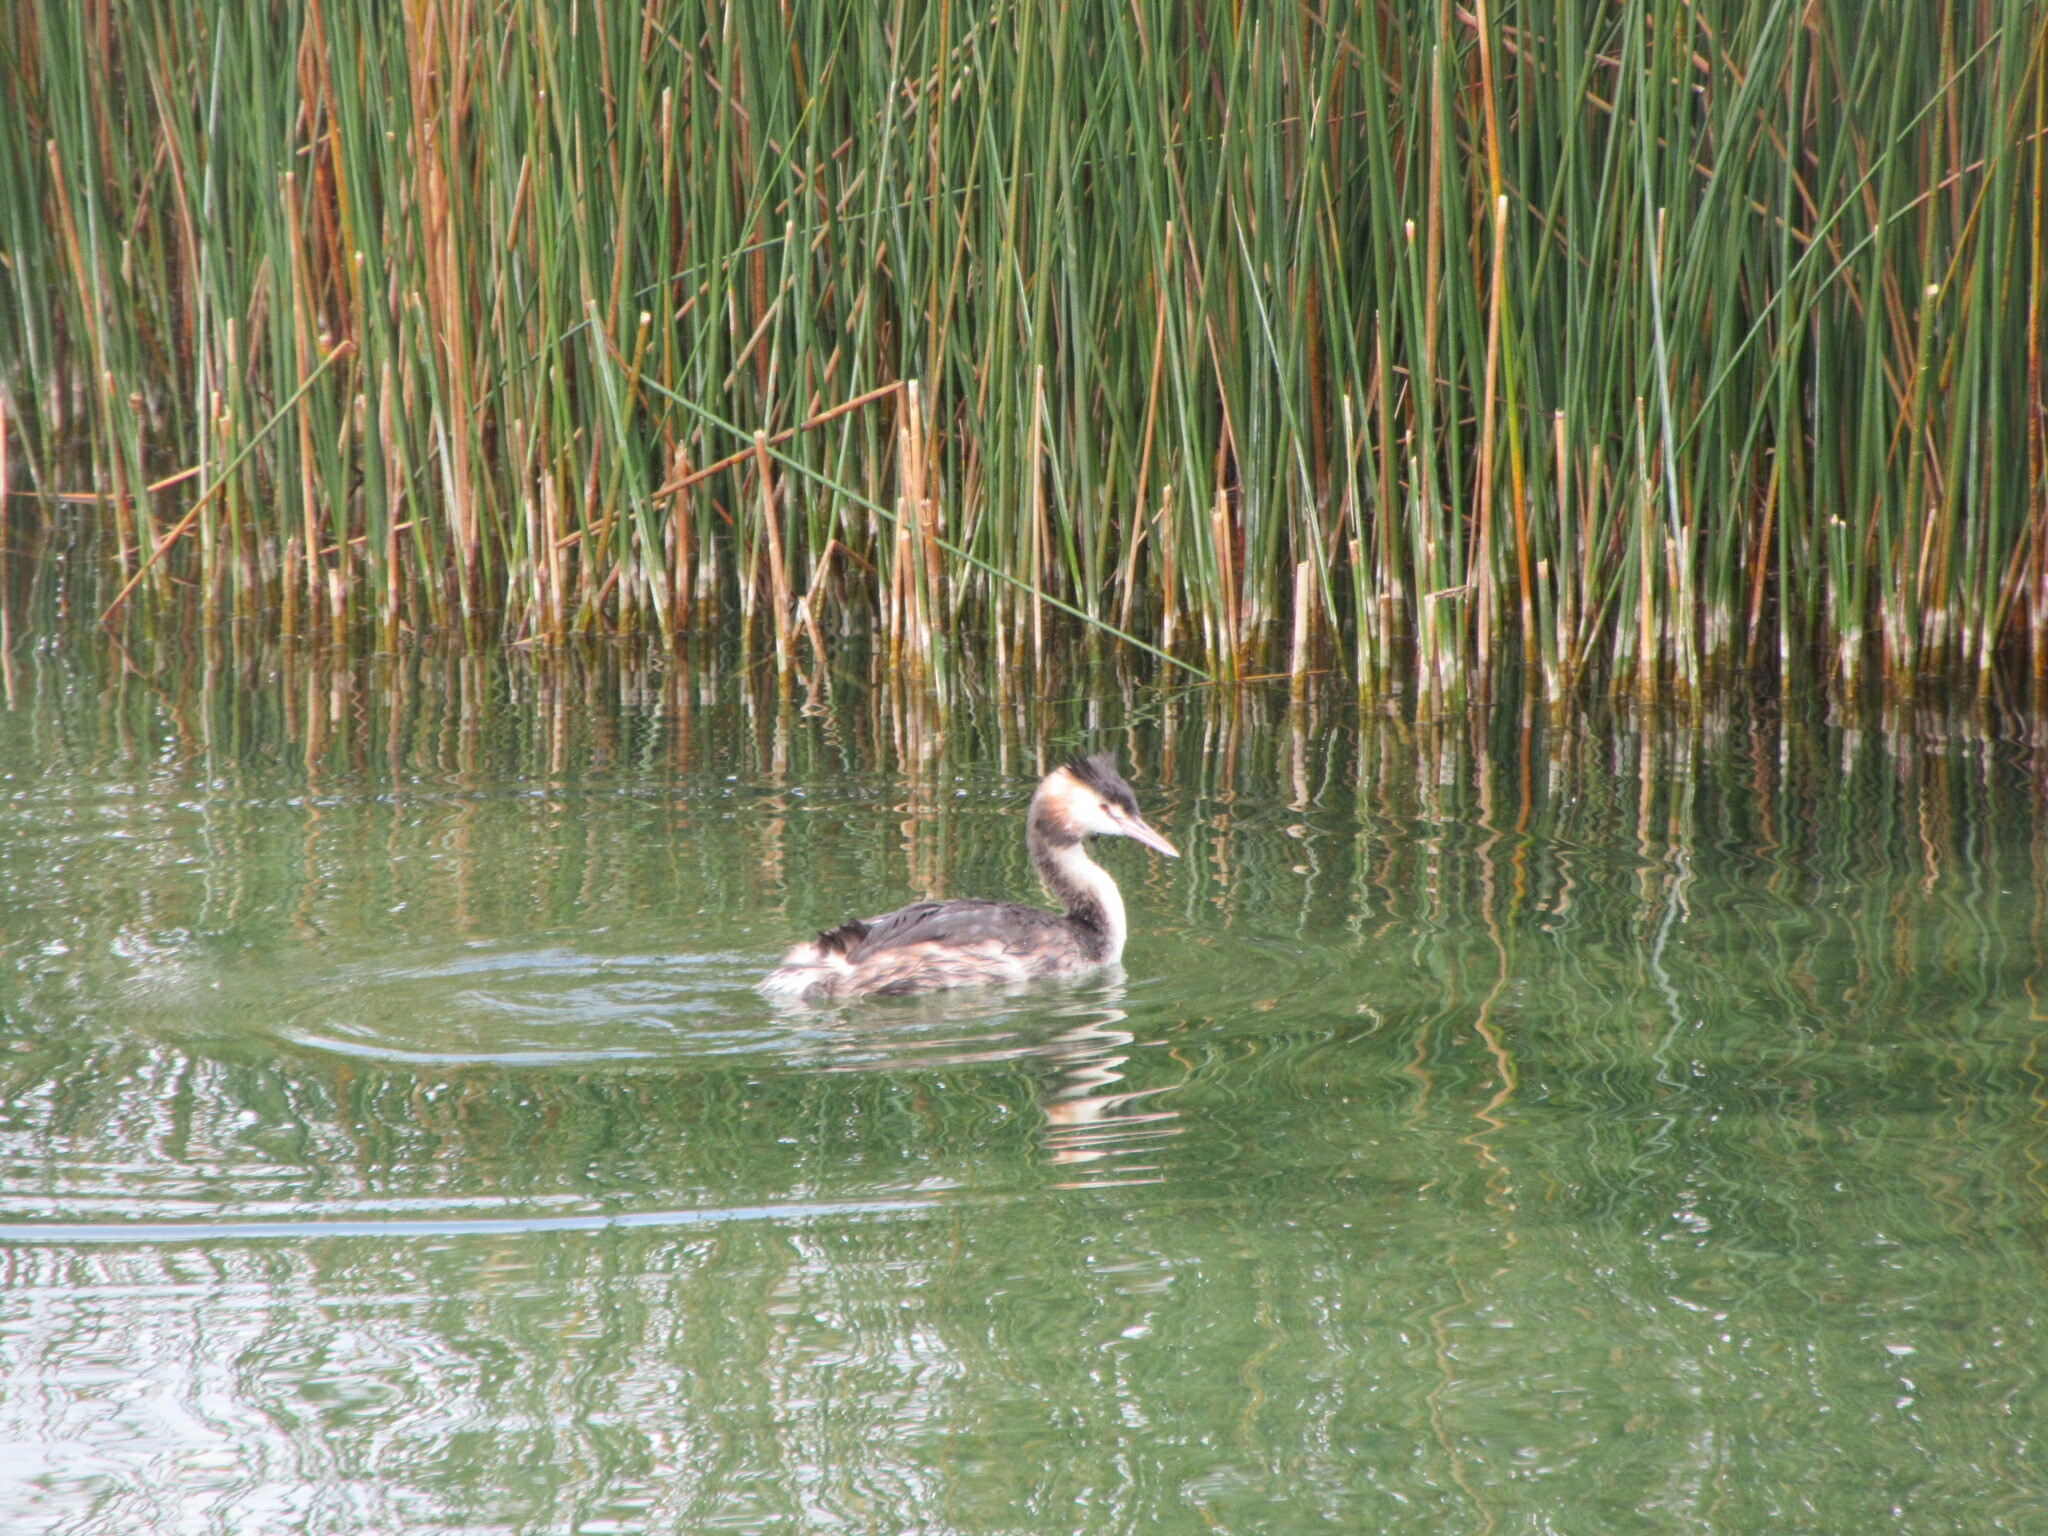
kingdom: Animalia
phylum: Chordata
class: Aves
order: Podicipediformes
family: Podicipedidae
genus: Podiceps
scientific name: Podiceps cristatus
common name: Great crested grebe
